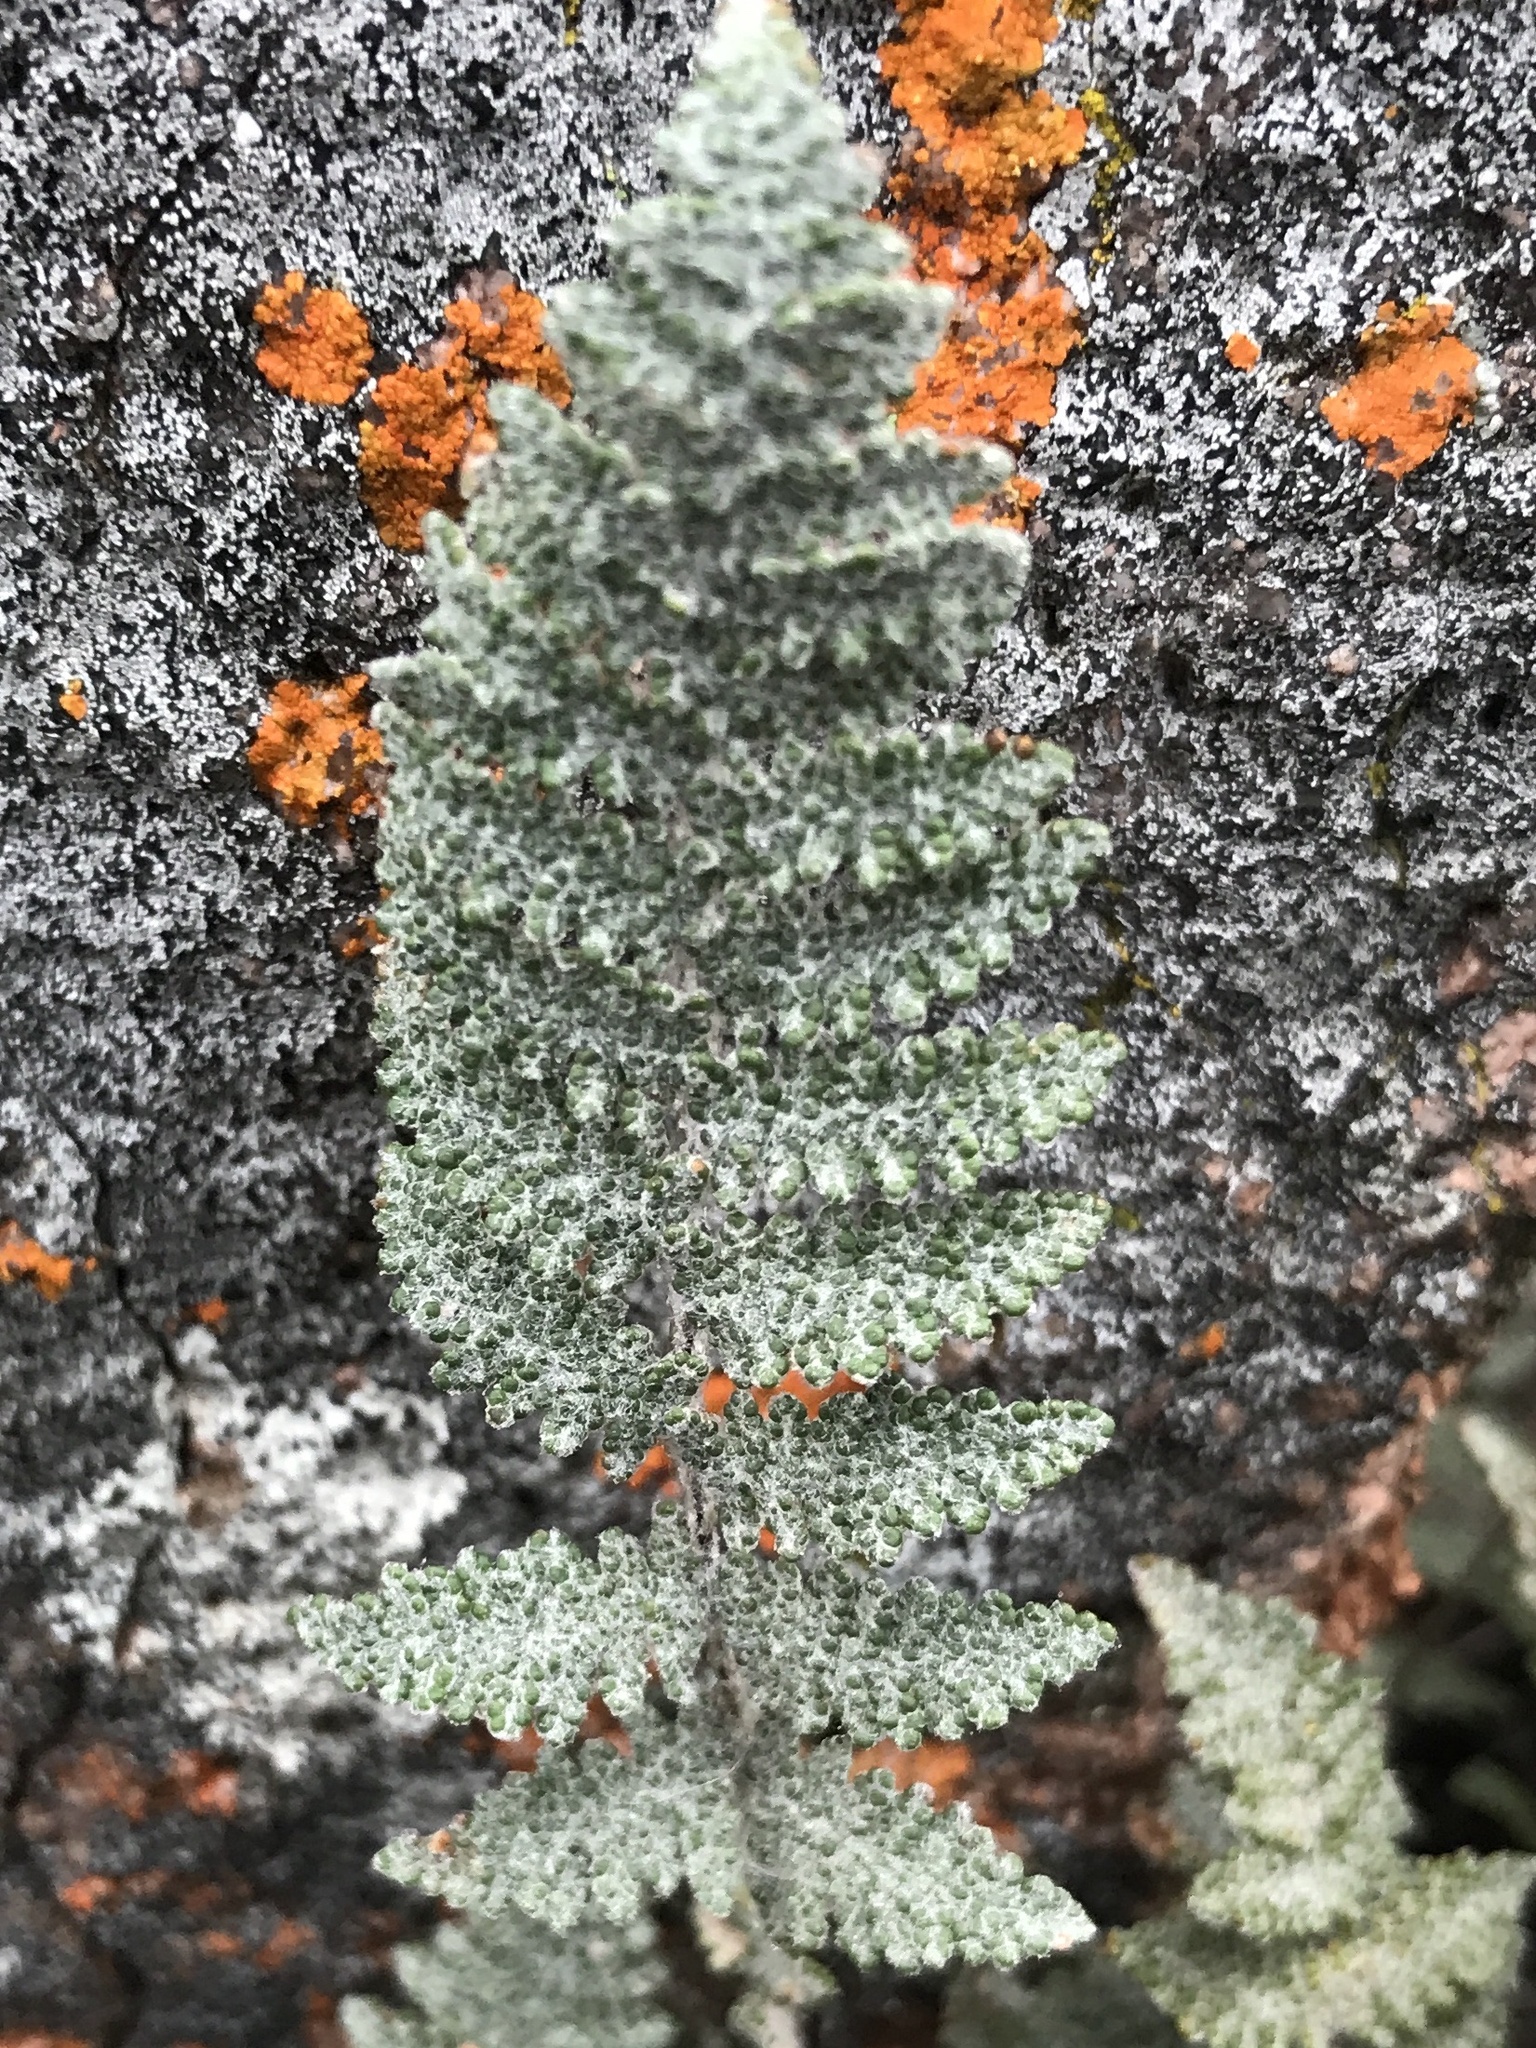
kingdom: Plantae
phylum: Tracheophyta
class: Polypodiopsida
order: Polypodiales
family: Pteridaceae
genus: Myriopteris
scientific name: Myriopteris lindheimeri
